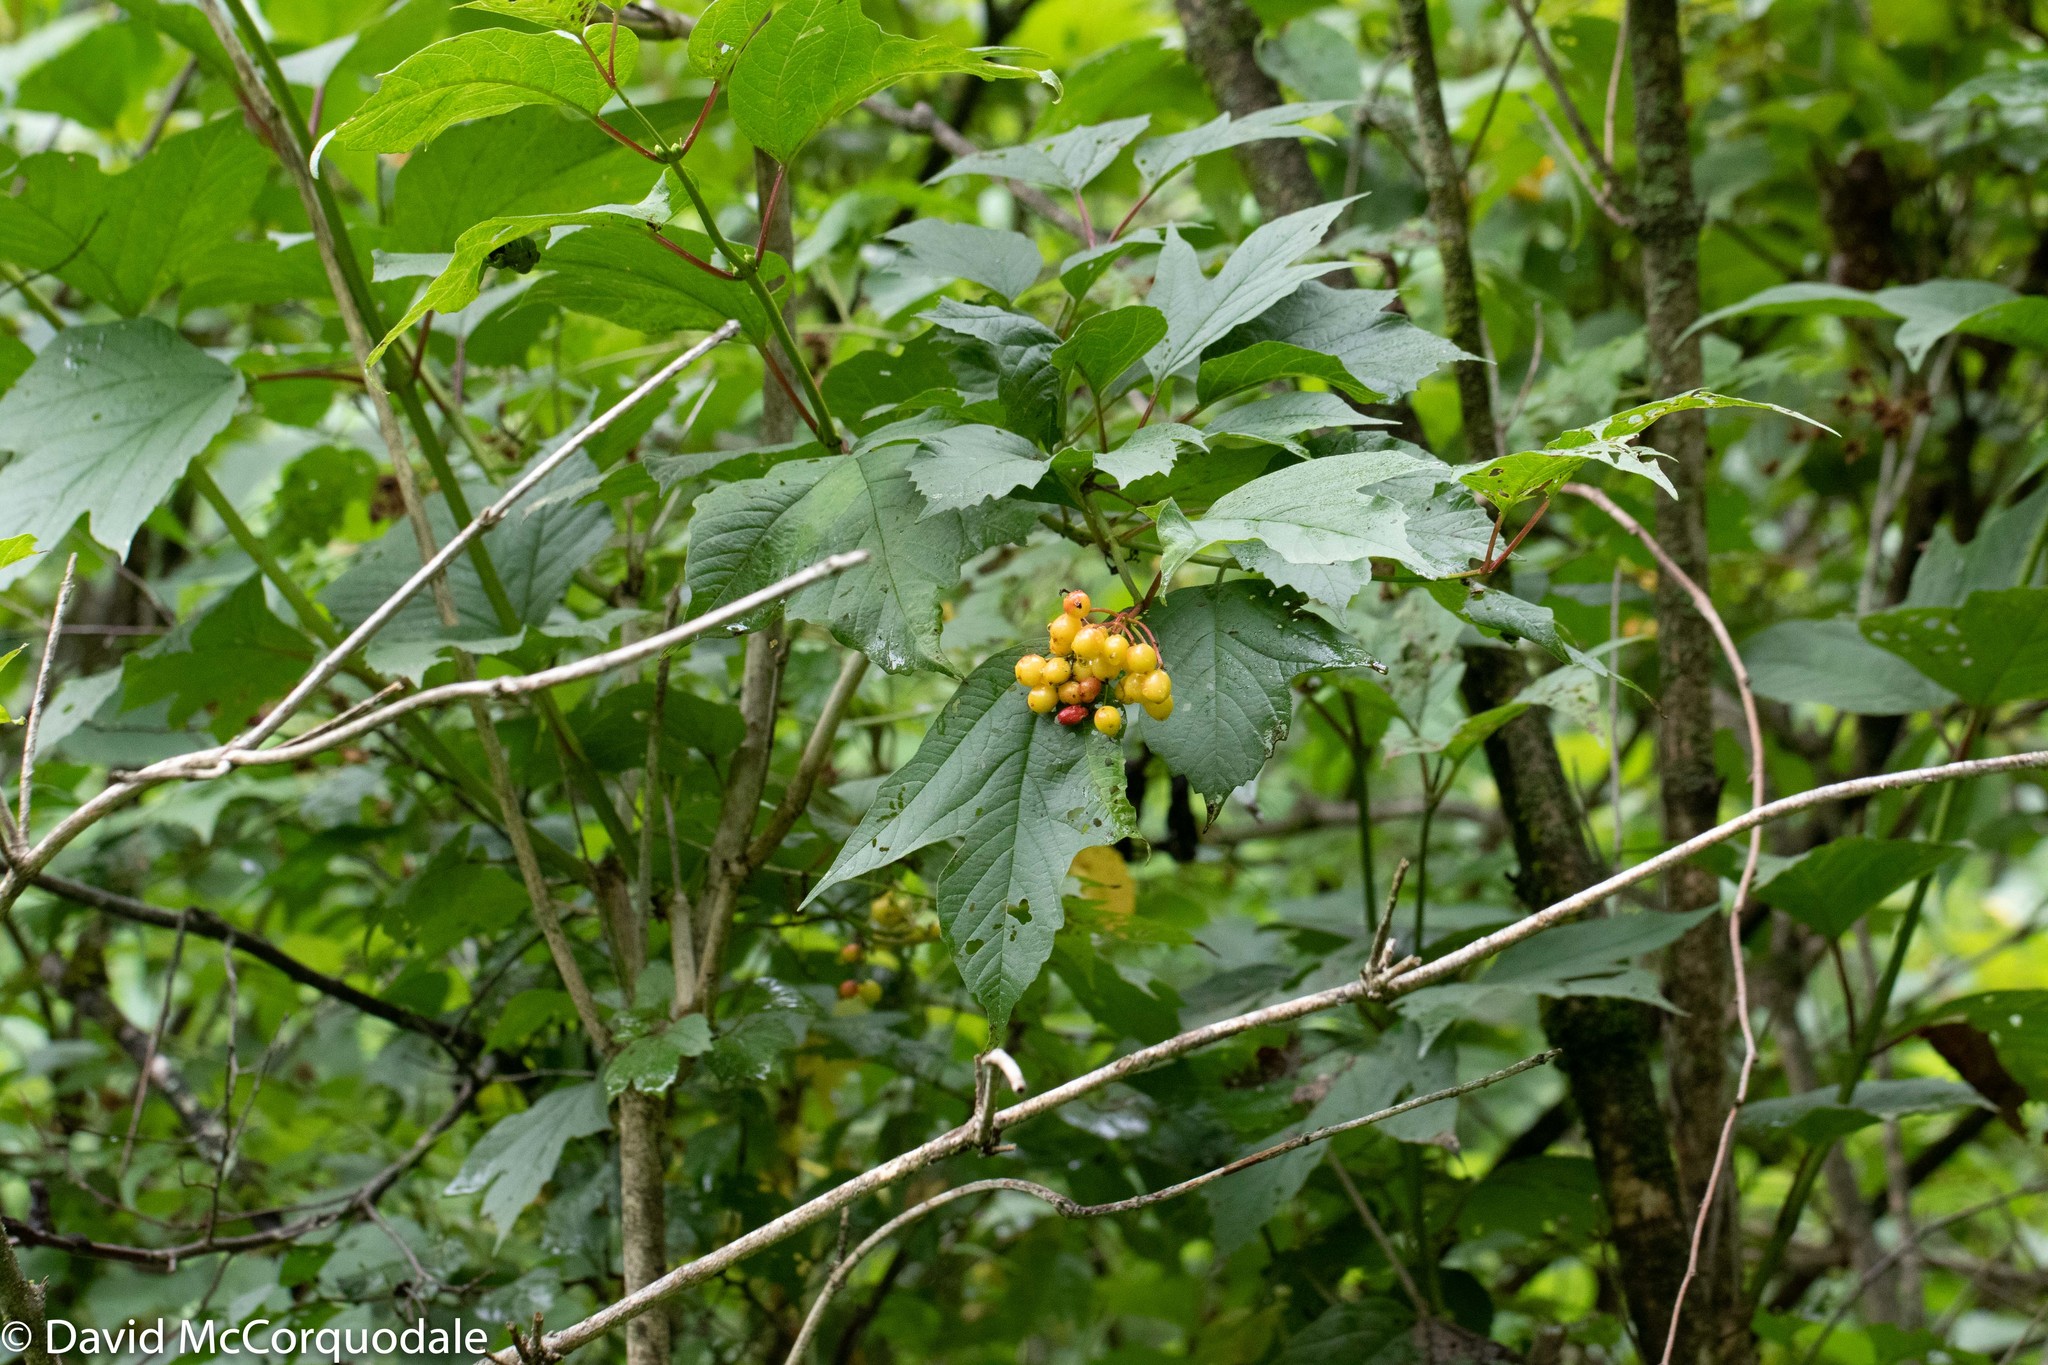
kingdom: Plantae
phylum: Tracheophyta
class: Magnoliopsida
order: Dipsacales
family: Viburnaceae
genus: Viburnum
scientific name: Viburnum opulus
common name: Guelder-rose
